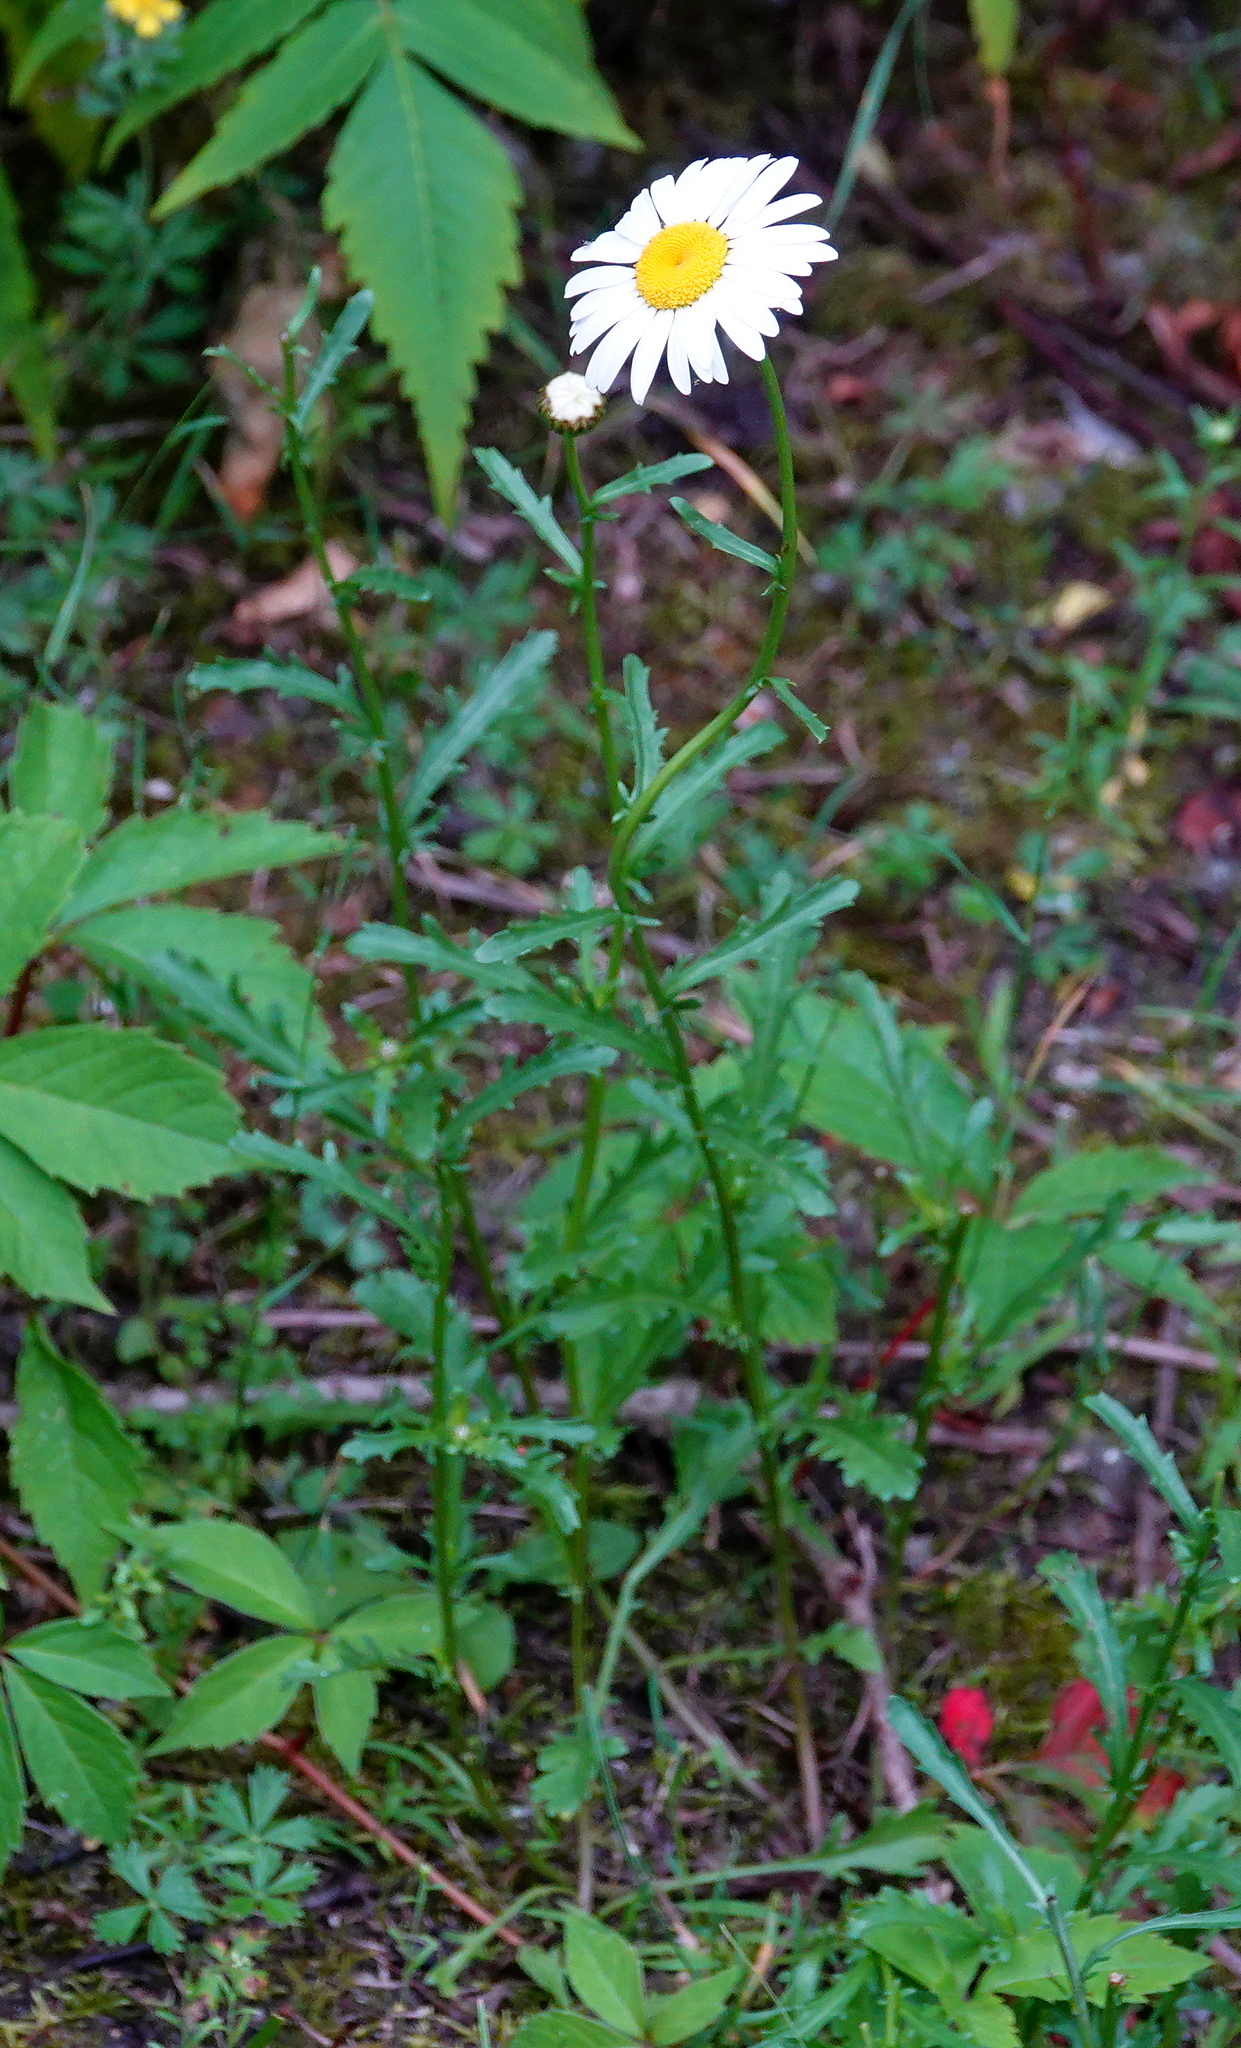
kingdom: Plantae
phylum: Tracheophyta
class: Magnoliopsida
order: Asterales
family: Asteraceae
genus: Leucanthemum
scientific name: Leucanthemum vulgare
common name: Oxeye daisy
